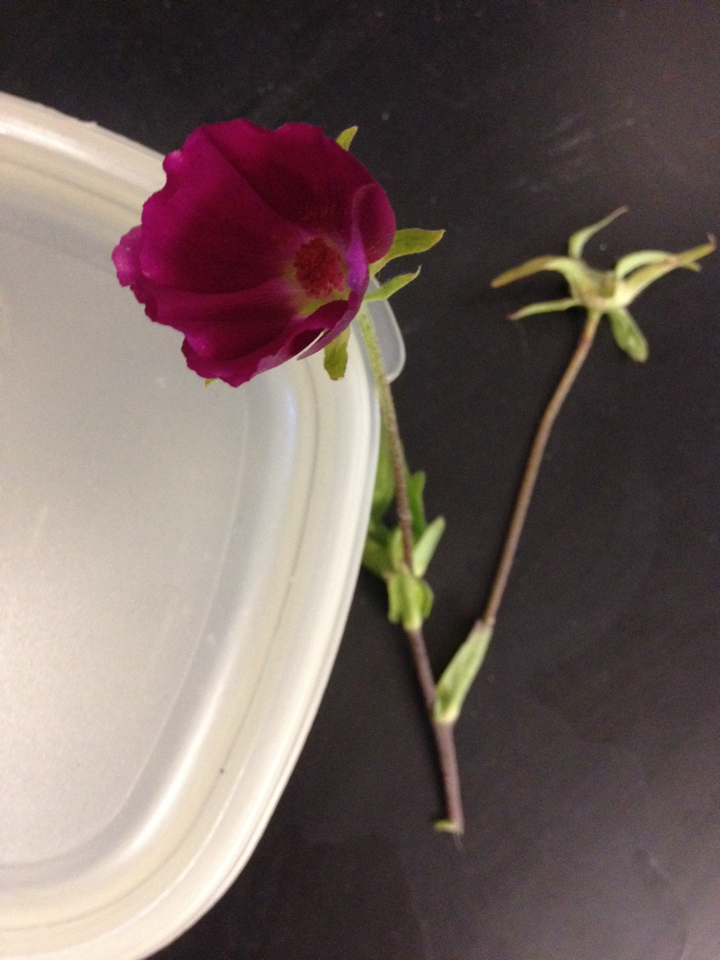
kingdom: Plantae
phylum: Tracheophyta
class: Magnoliopsida
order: Malvales
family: Malvaceae
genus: Callirhoe
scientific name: Callirhoe involucrata
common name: Purple poppy-mallow
